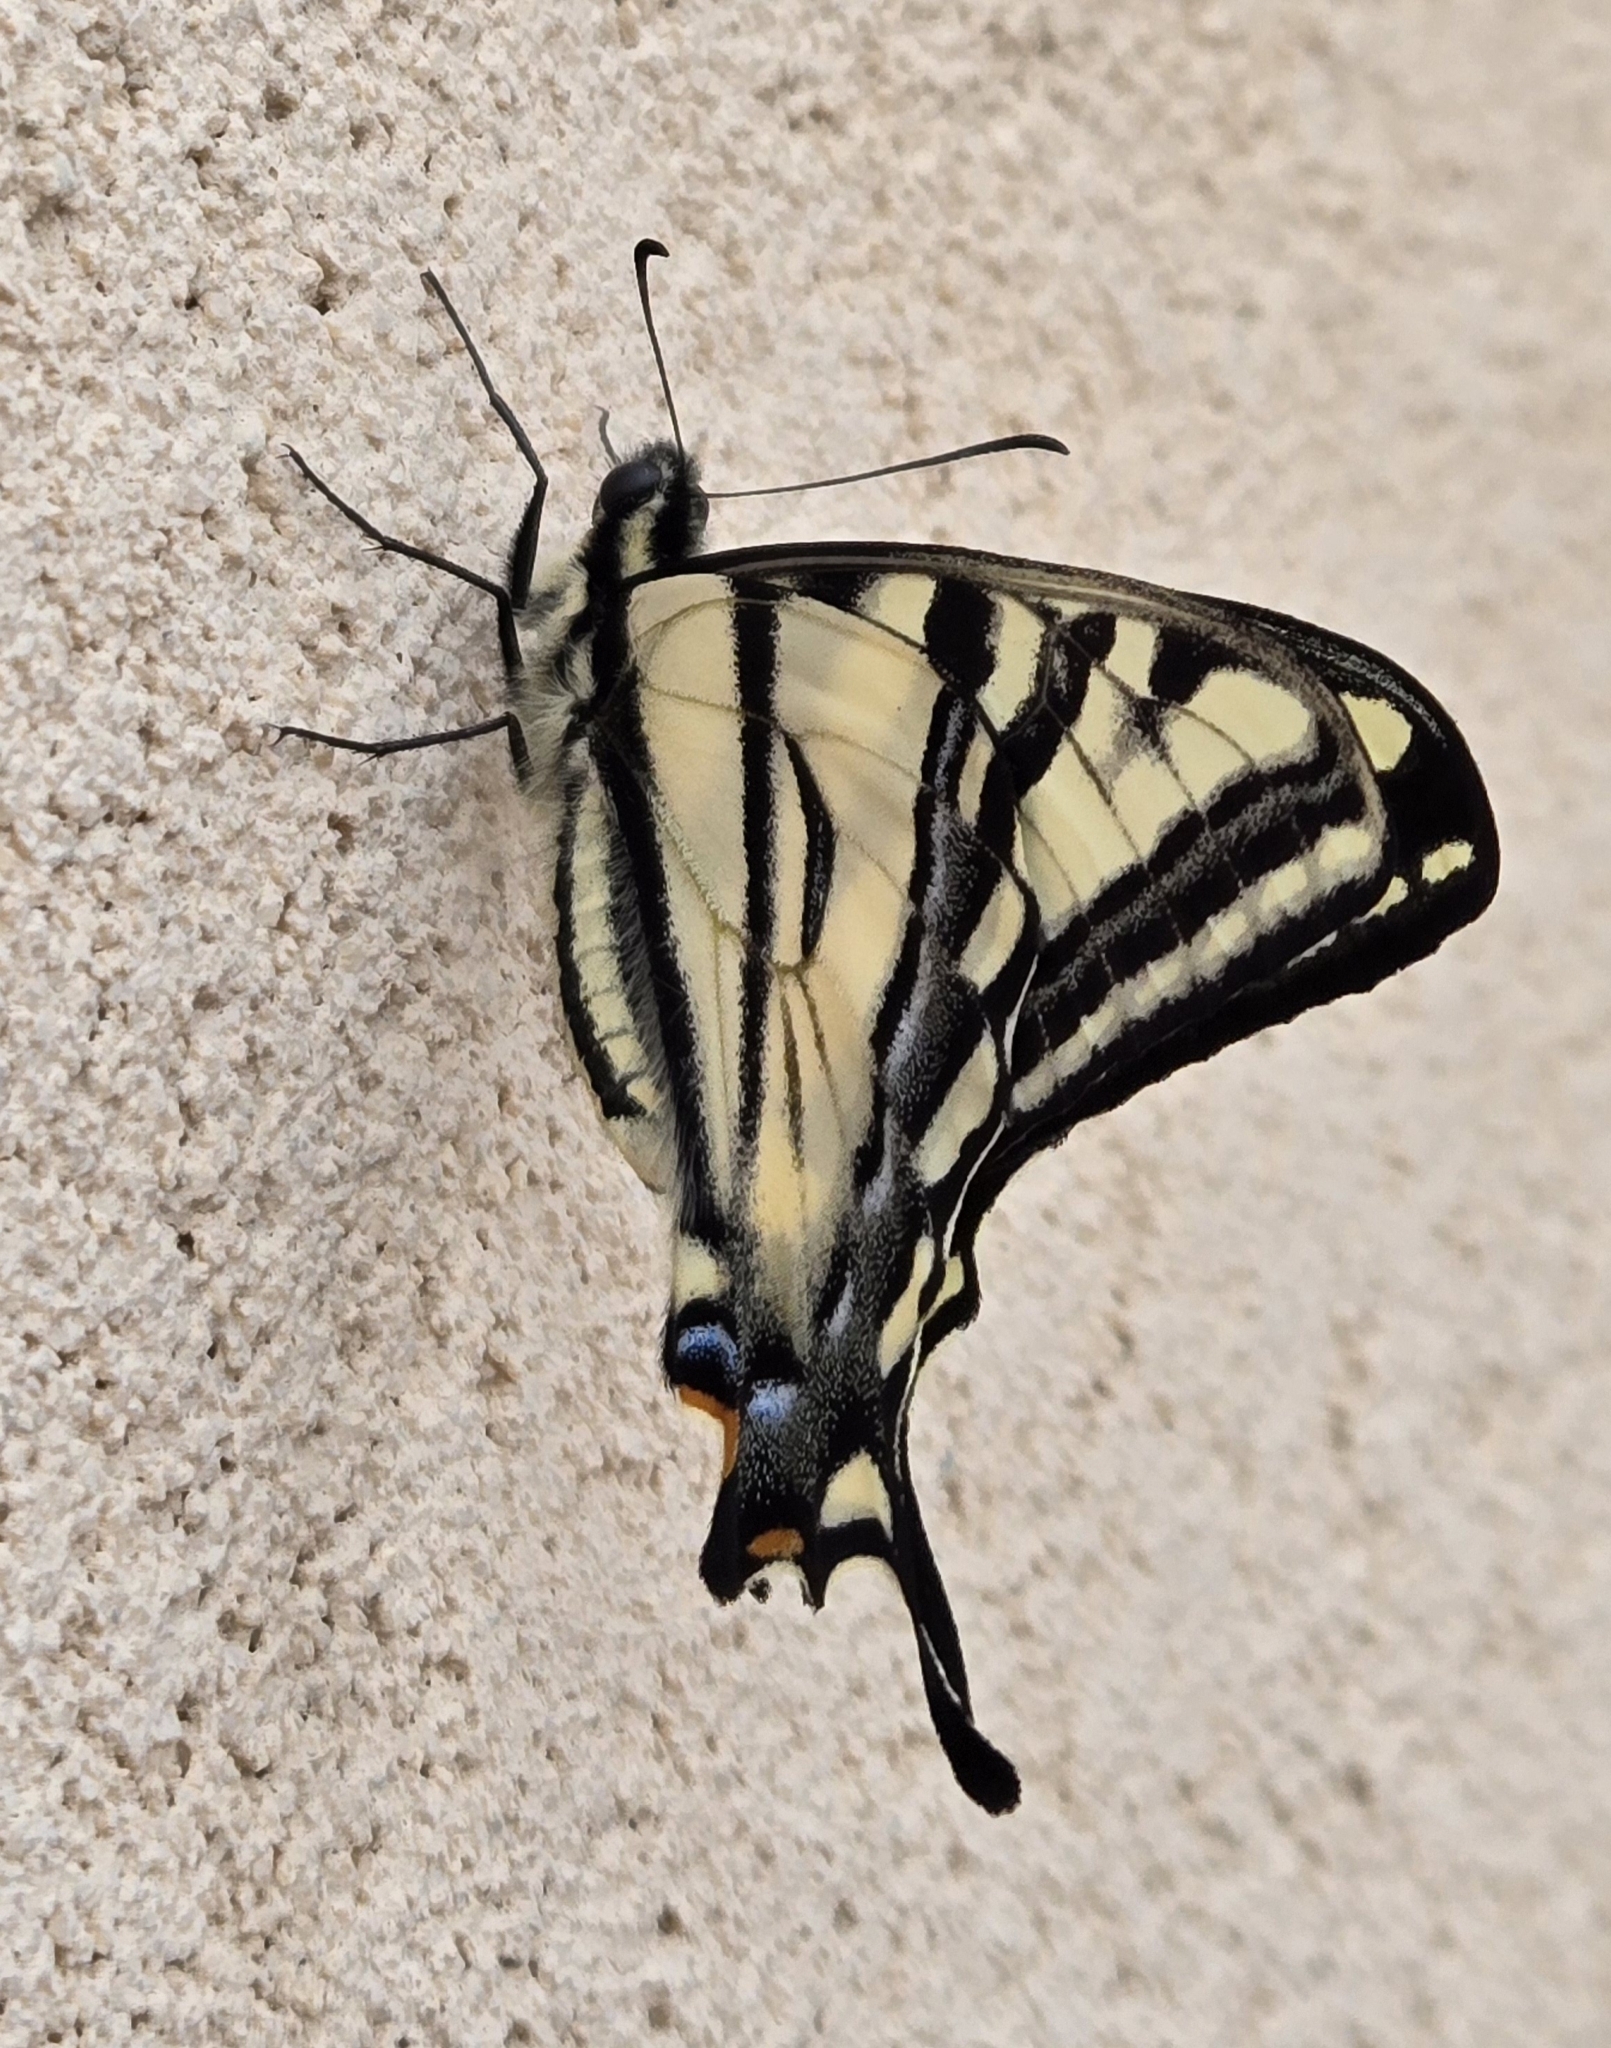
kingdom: Animalia
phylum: Arthropoda
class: Insecta
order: Lepidoptera
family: Papilionidae
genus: Papilio
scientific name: Papilio rutulus
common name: Western tiger swallowtail
